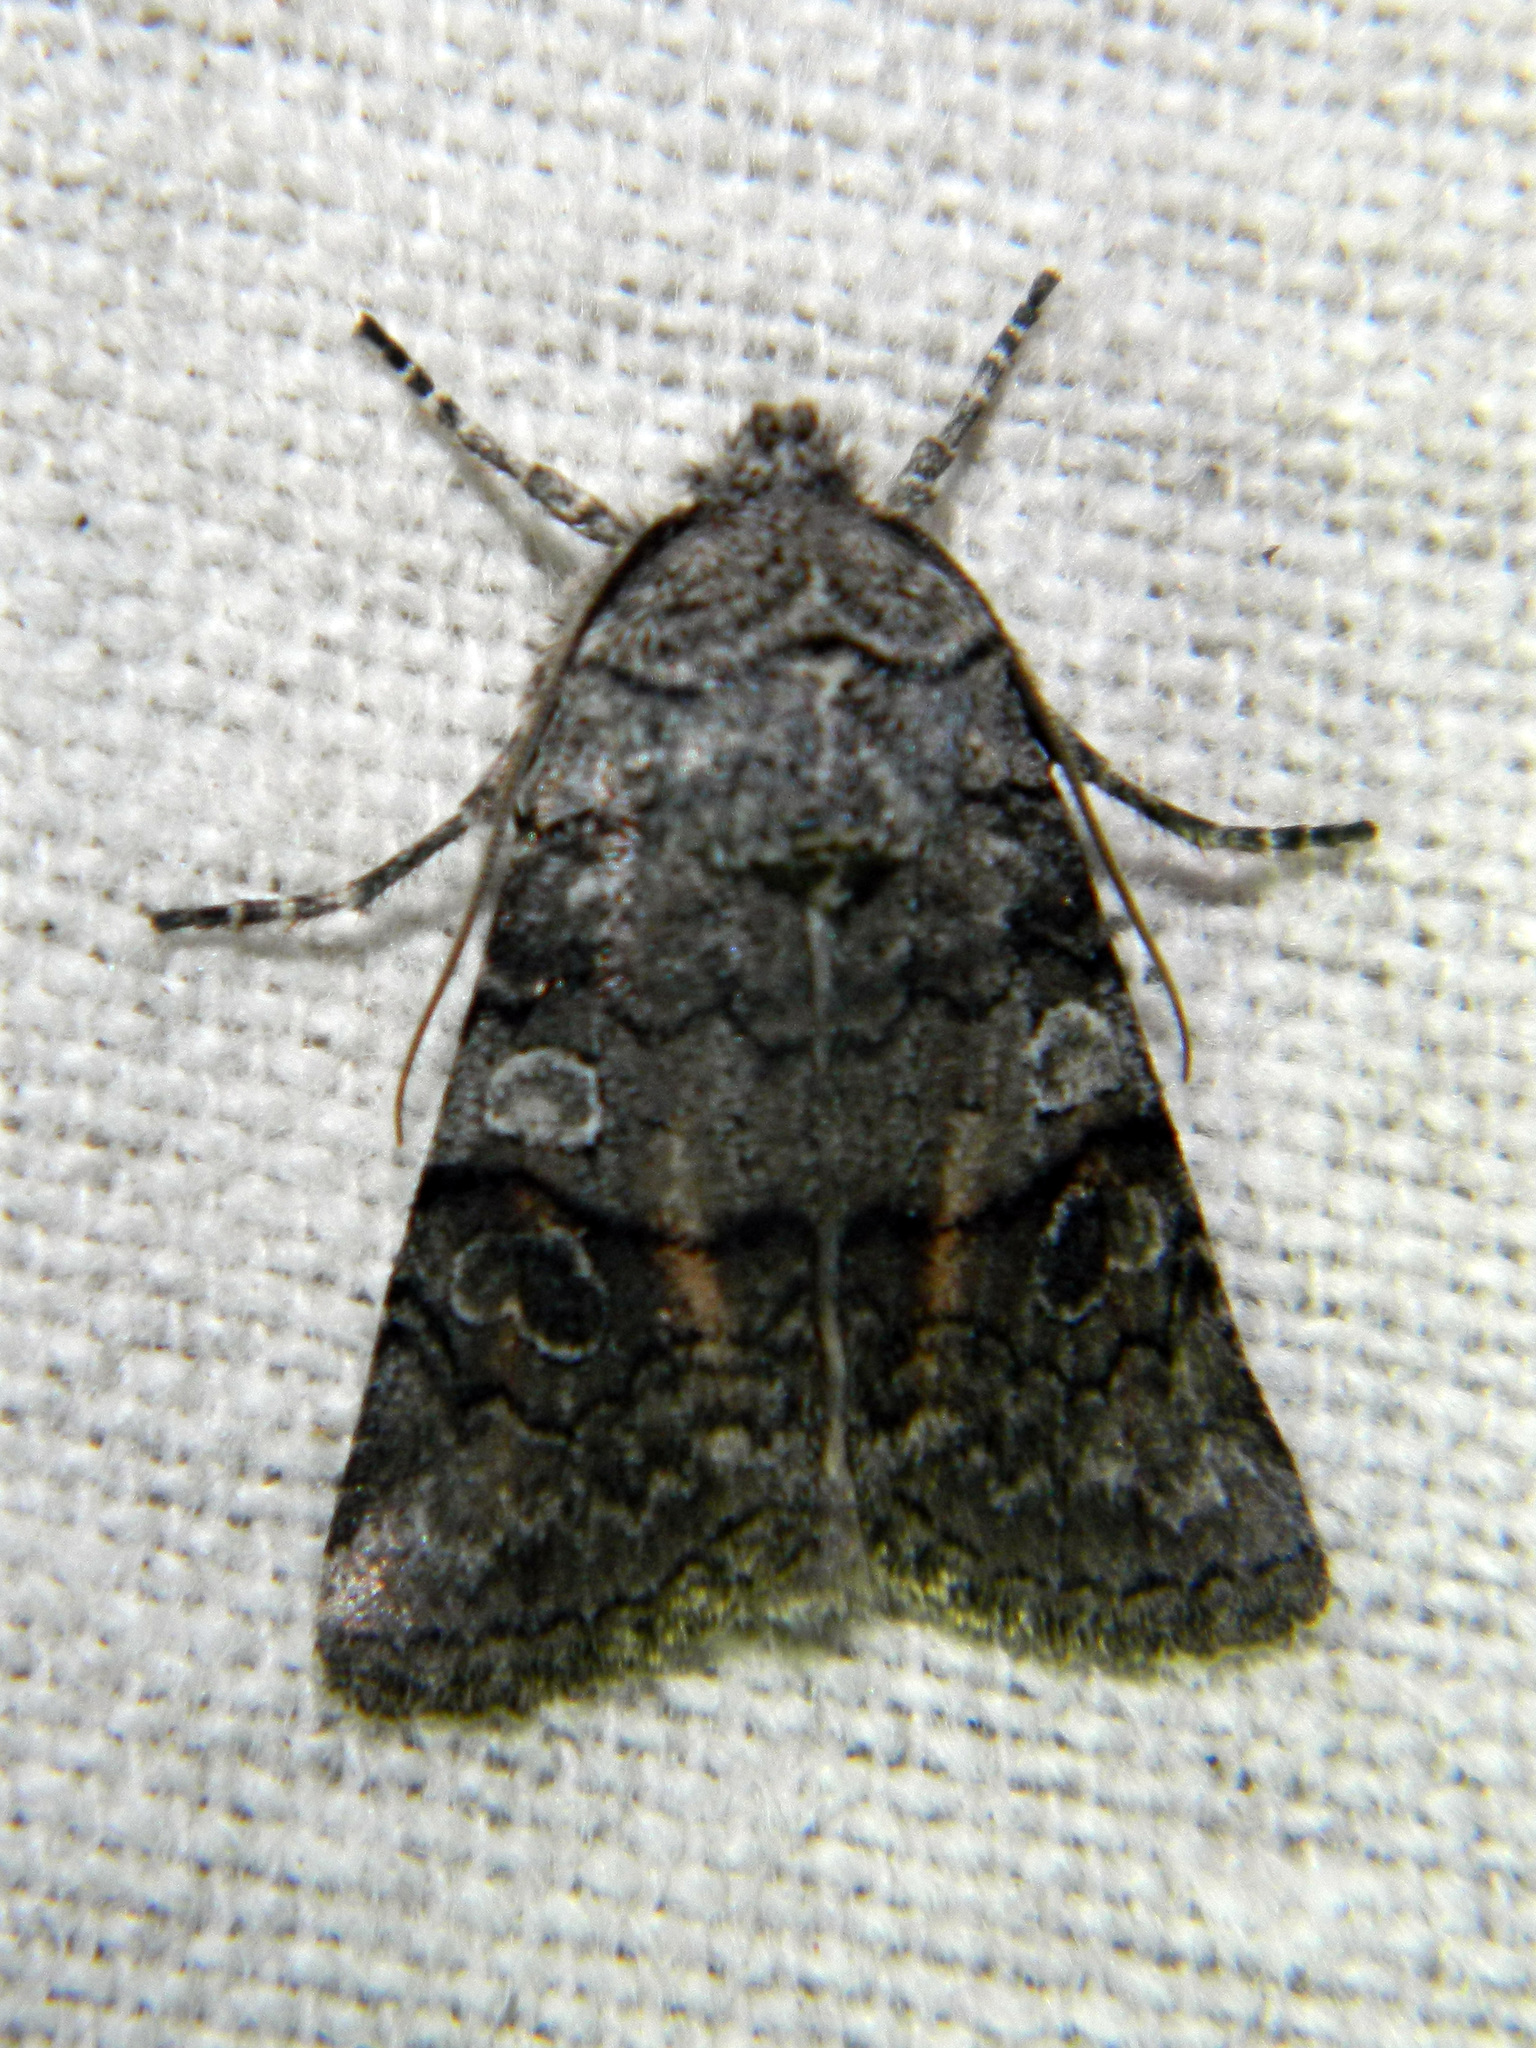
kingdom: Animalia
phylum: Arthropoda
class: Insecta
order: Lepidoptera
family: Noctuidae
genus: Litholomia
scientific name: Litholomia napaea
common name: False pinion moth
